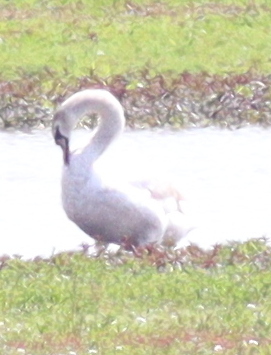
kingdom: Animalia
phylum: Chordata
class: Aves
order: Anseriformes
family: Anatidae
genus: Cygnus
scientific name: Cygnus olor
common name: Mute swan
